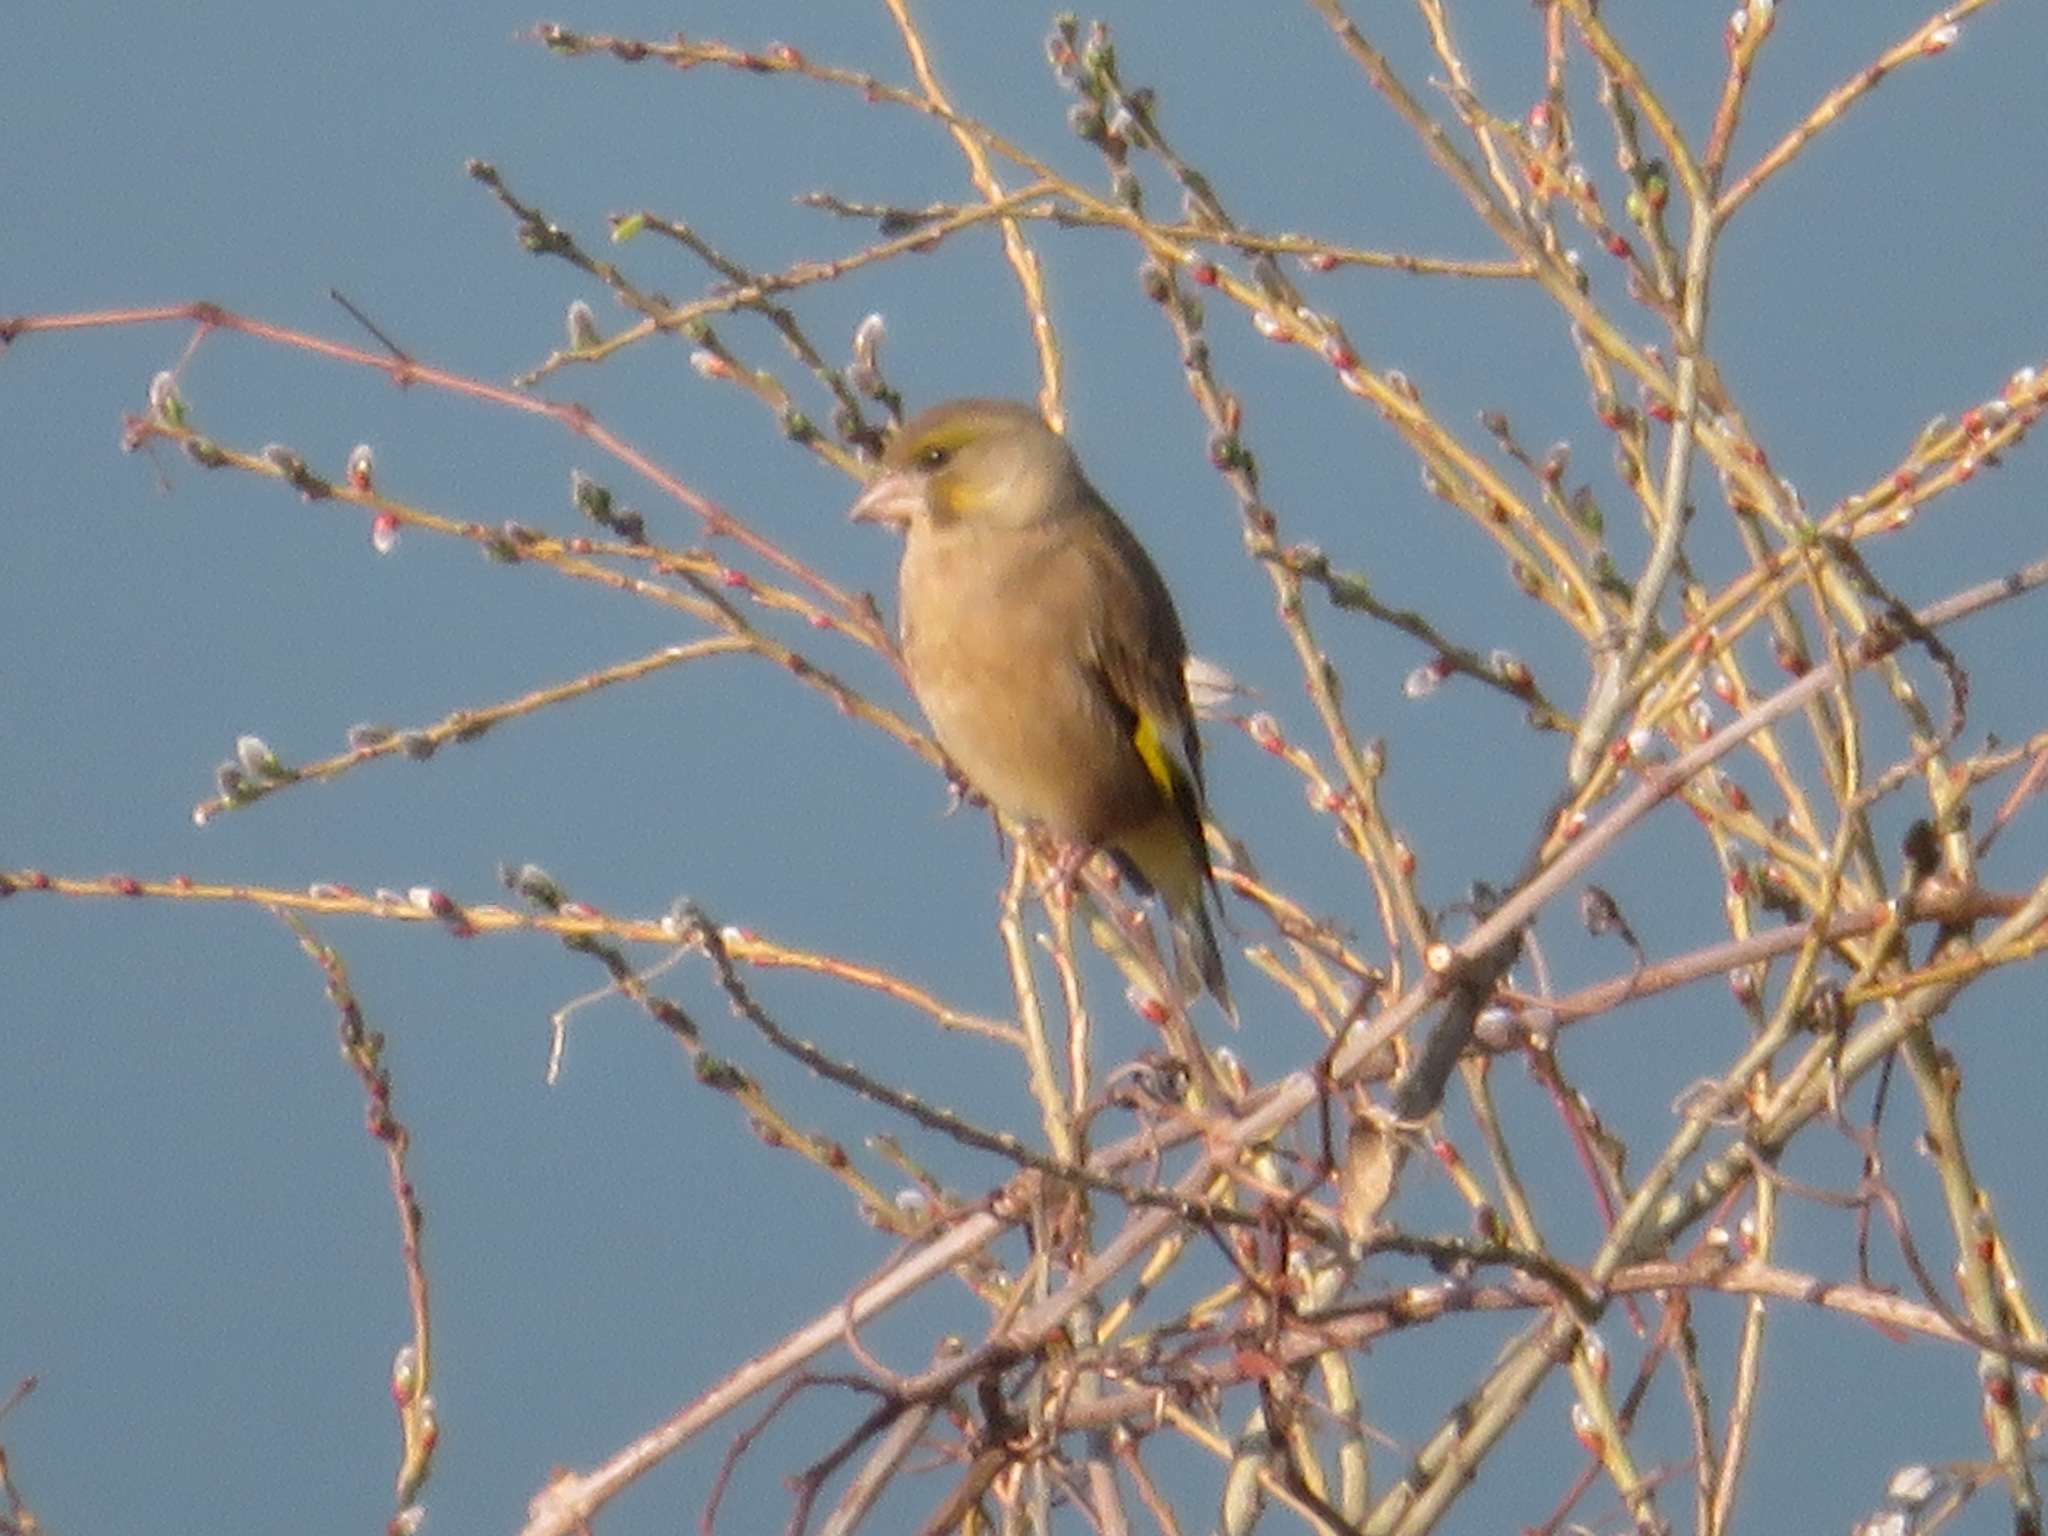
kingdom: Plantae
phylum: Tracheophyta
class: Liliopsida
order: Poales
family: Poaceae
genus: Chloris
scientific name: Chloris sinica
